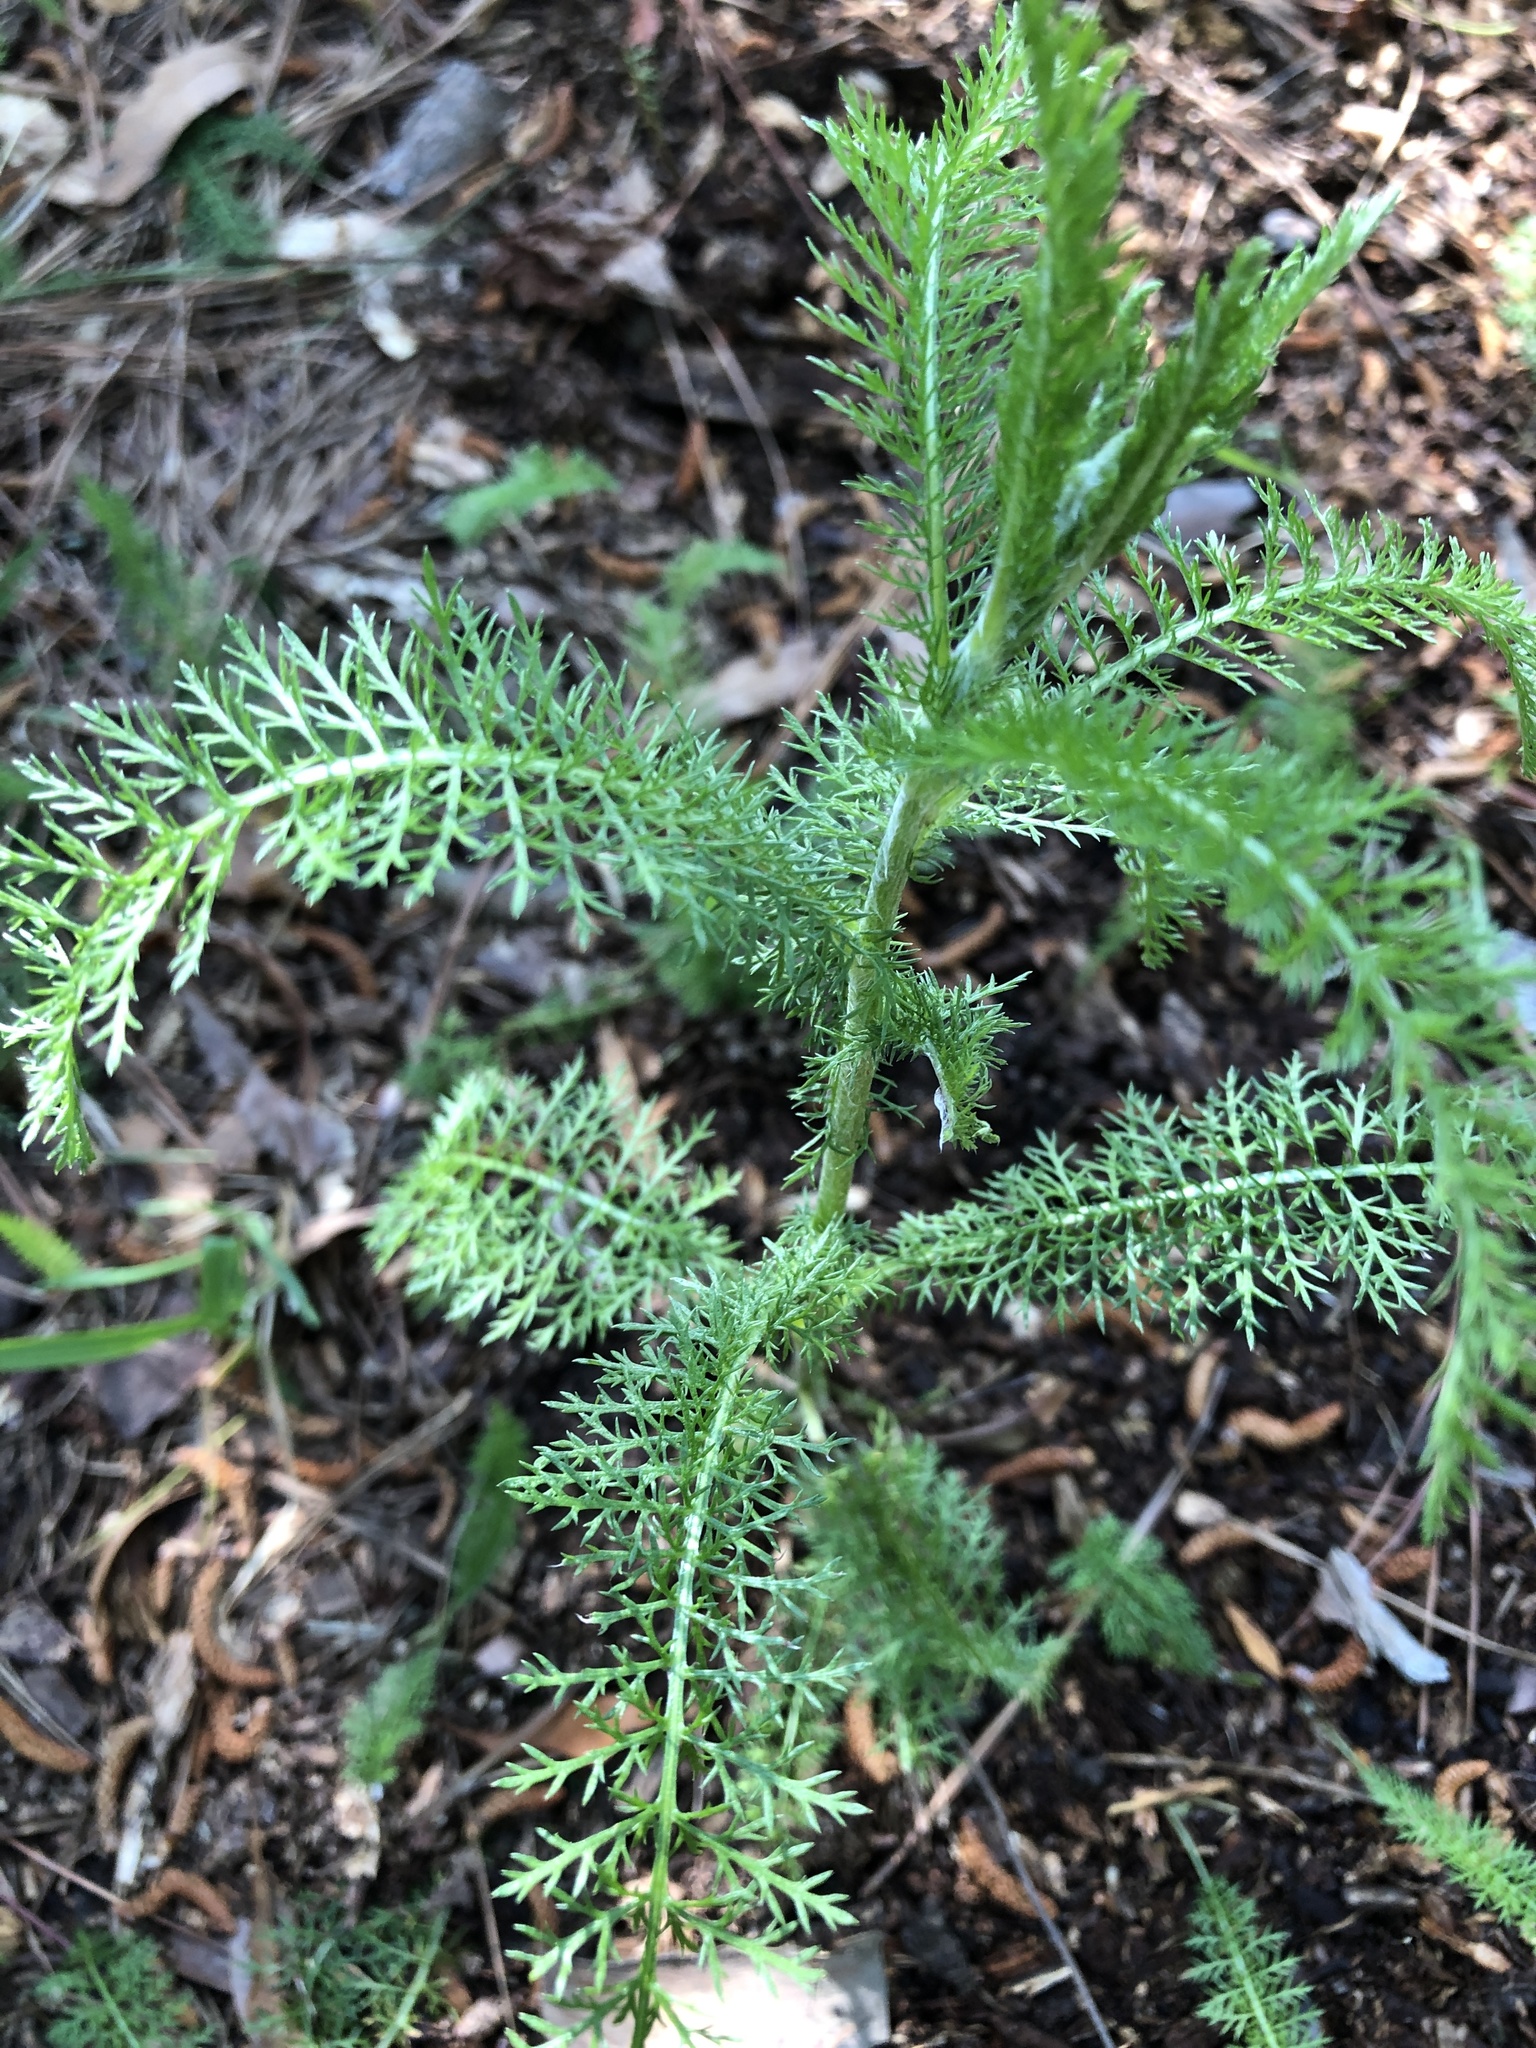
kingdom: Plantae
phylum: Tracheophyta
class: Magnoliopsida
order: Asterales
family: Asteraceae
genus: Achillea
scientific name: Achillea millefolium
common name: Yarrow
